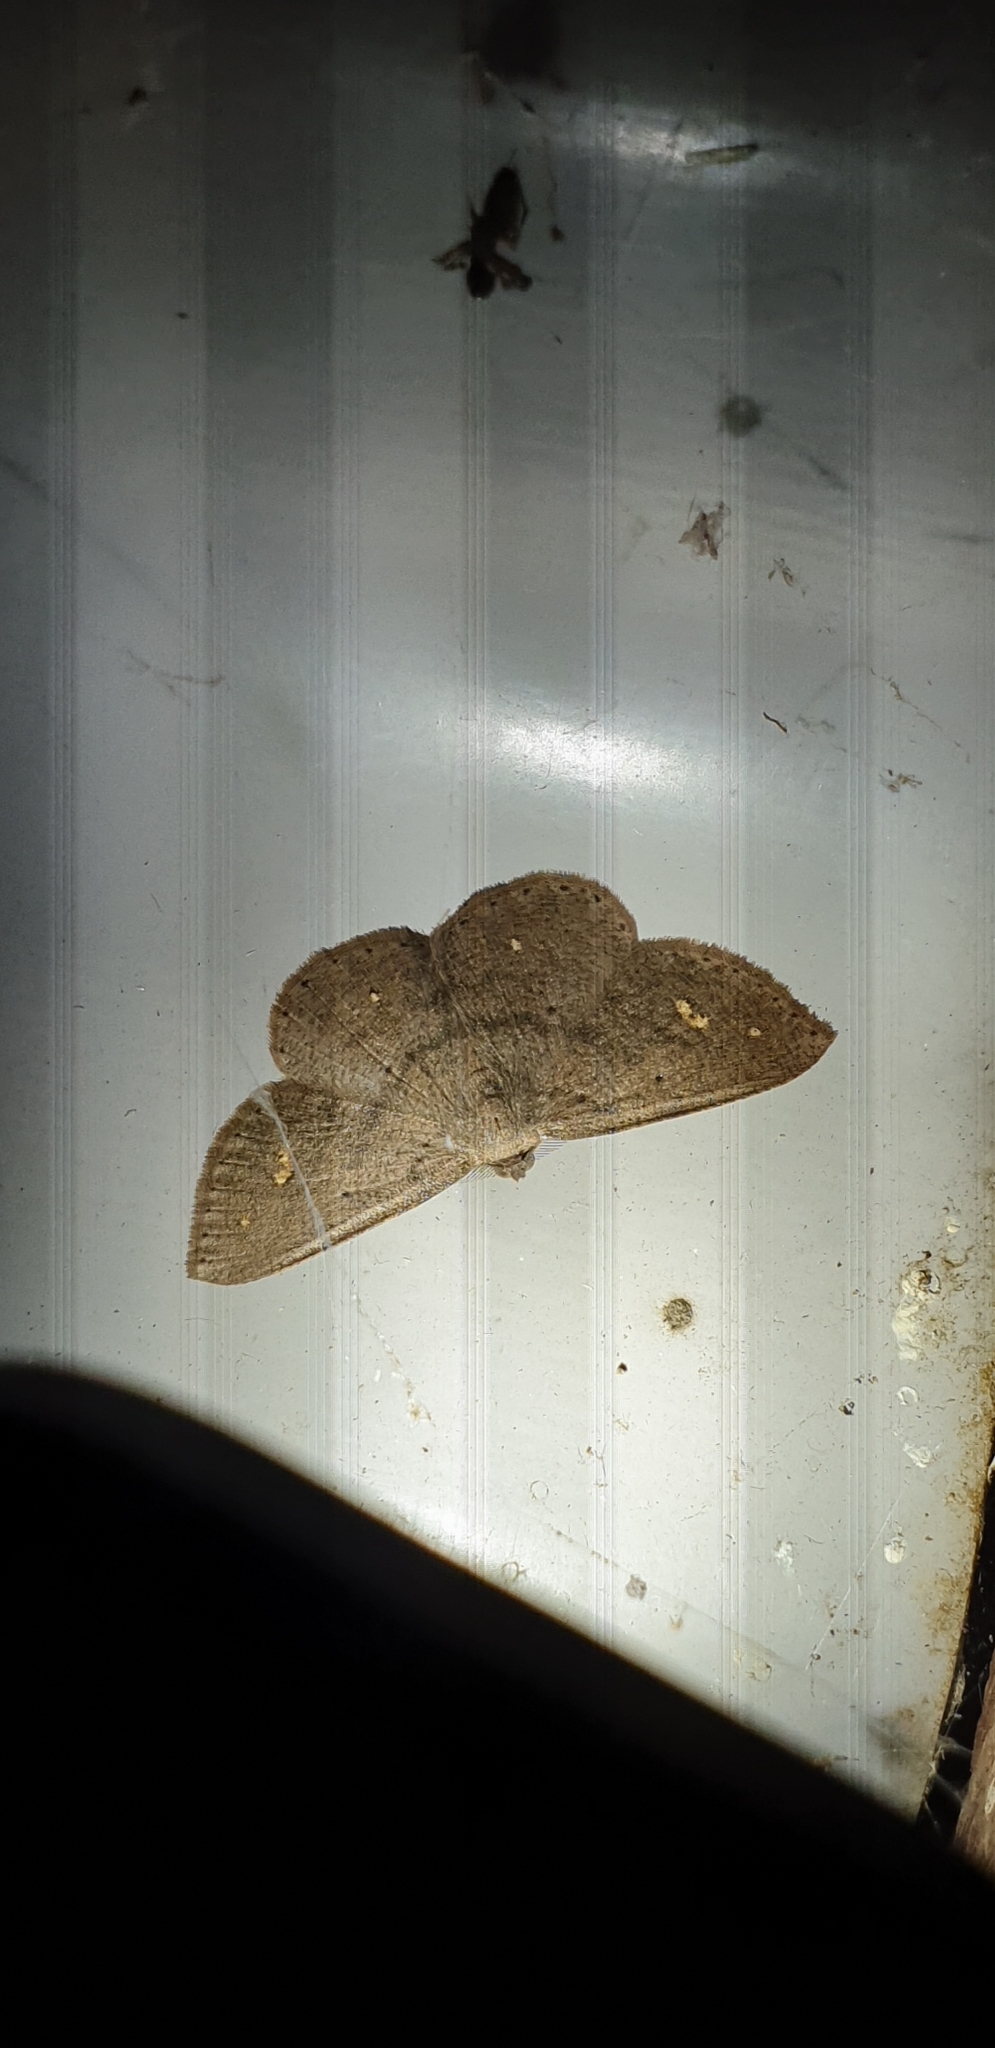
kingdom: Animalia
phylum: Arthropoda
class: Insecta
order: Lepidoptera
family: Geometridae
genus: Casbia
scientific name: Casbia didymosticta
